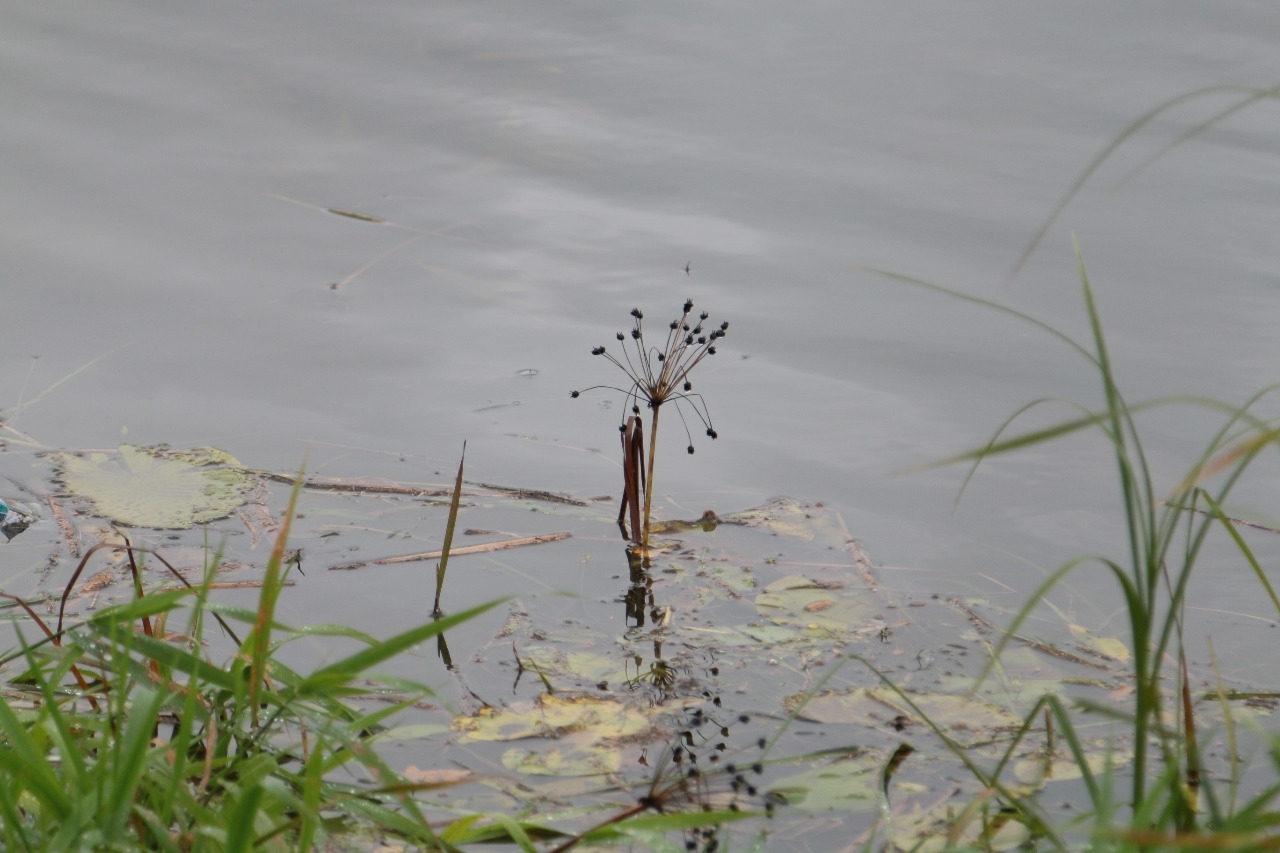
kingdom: Plantae
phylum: Tracheophyta
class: Liliopsida
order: Alismatales
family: Butomaceae
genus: Butomus
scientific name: Butomus umbellatus
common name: Flowering-rush
